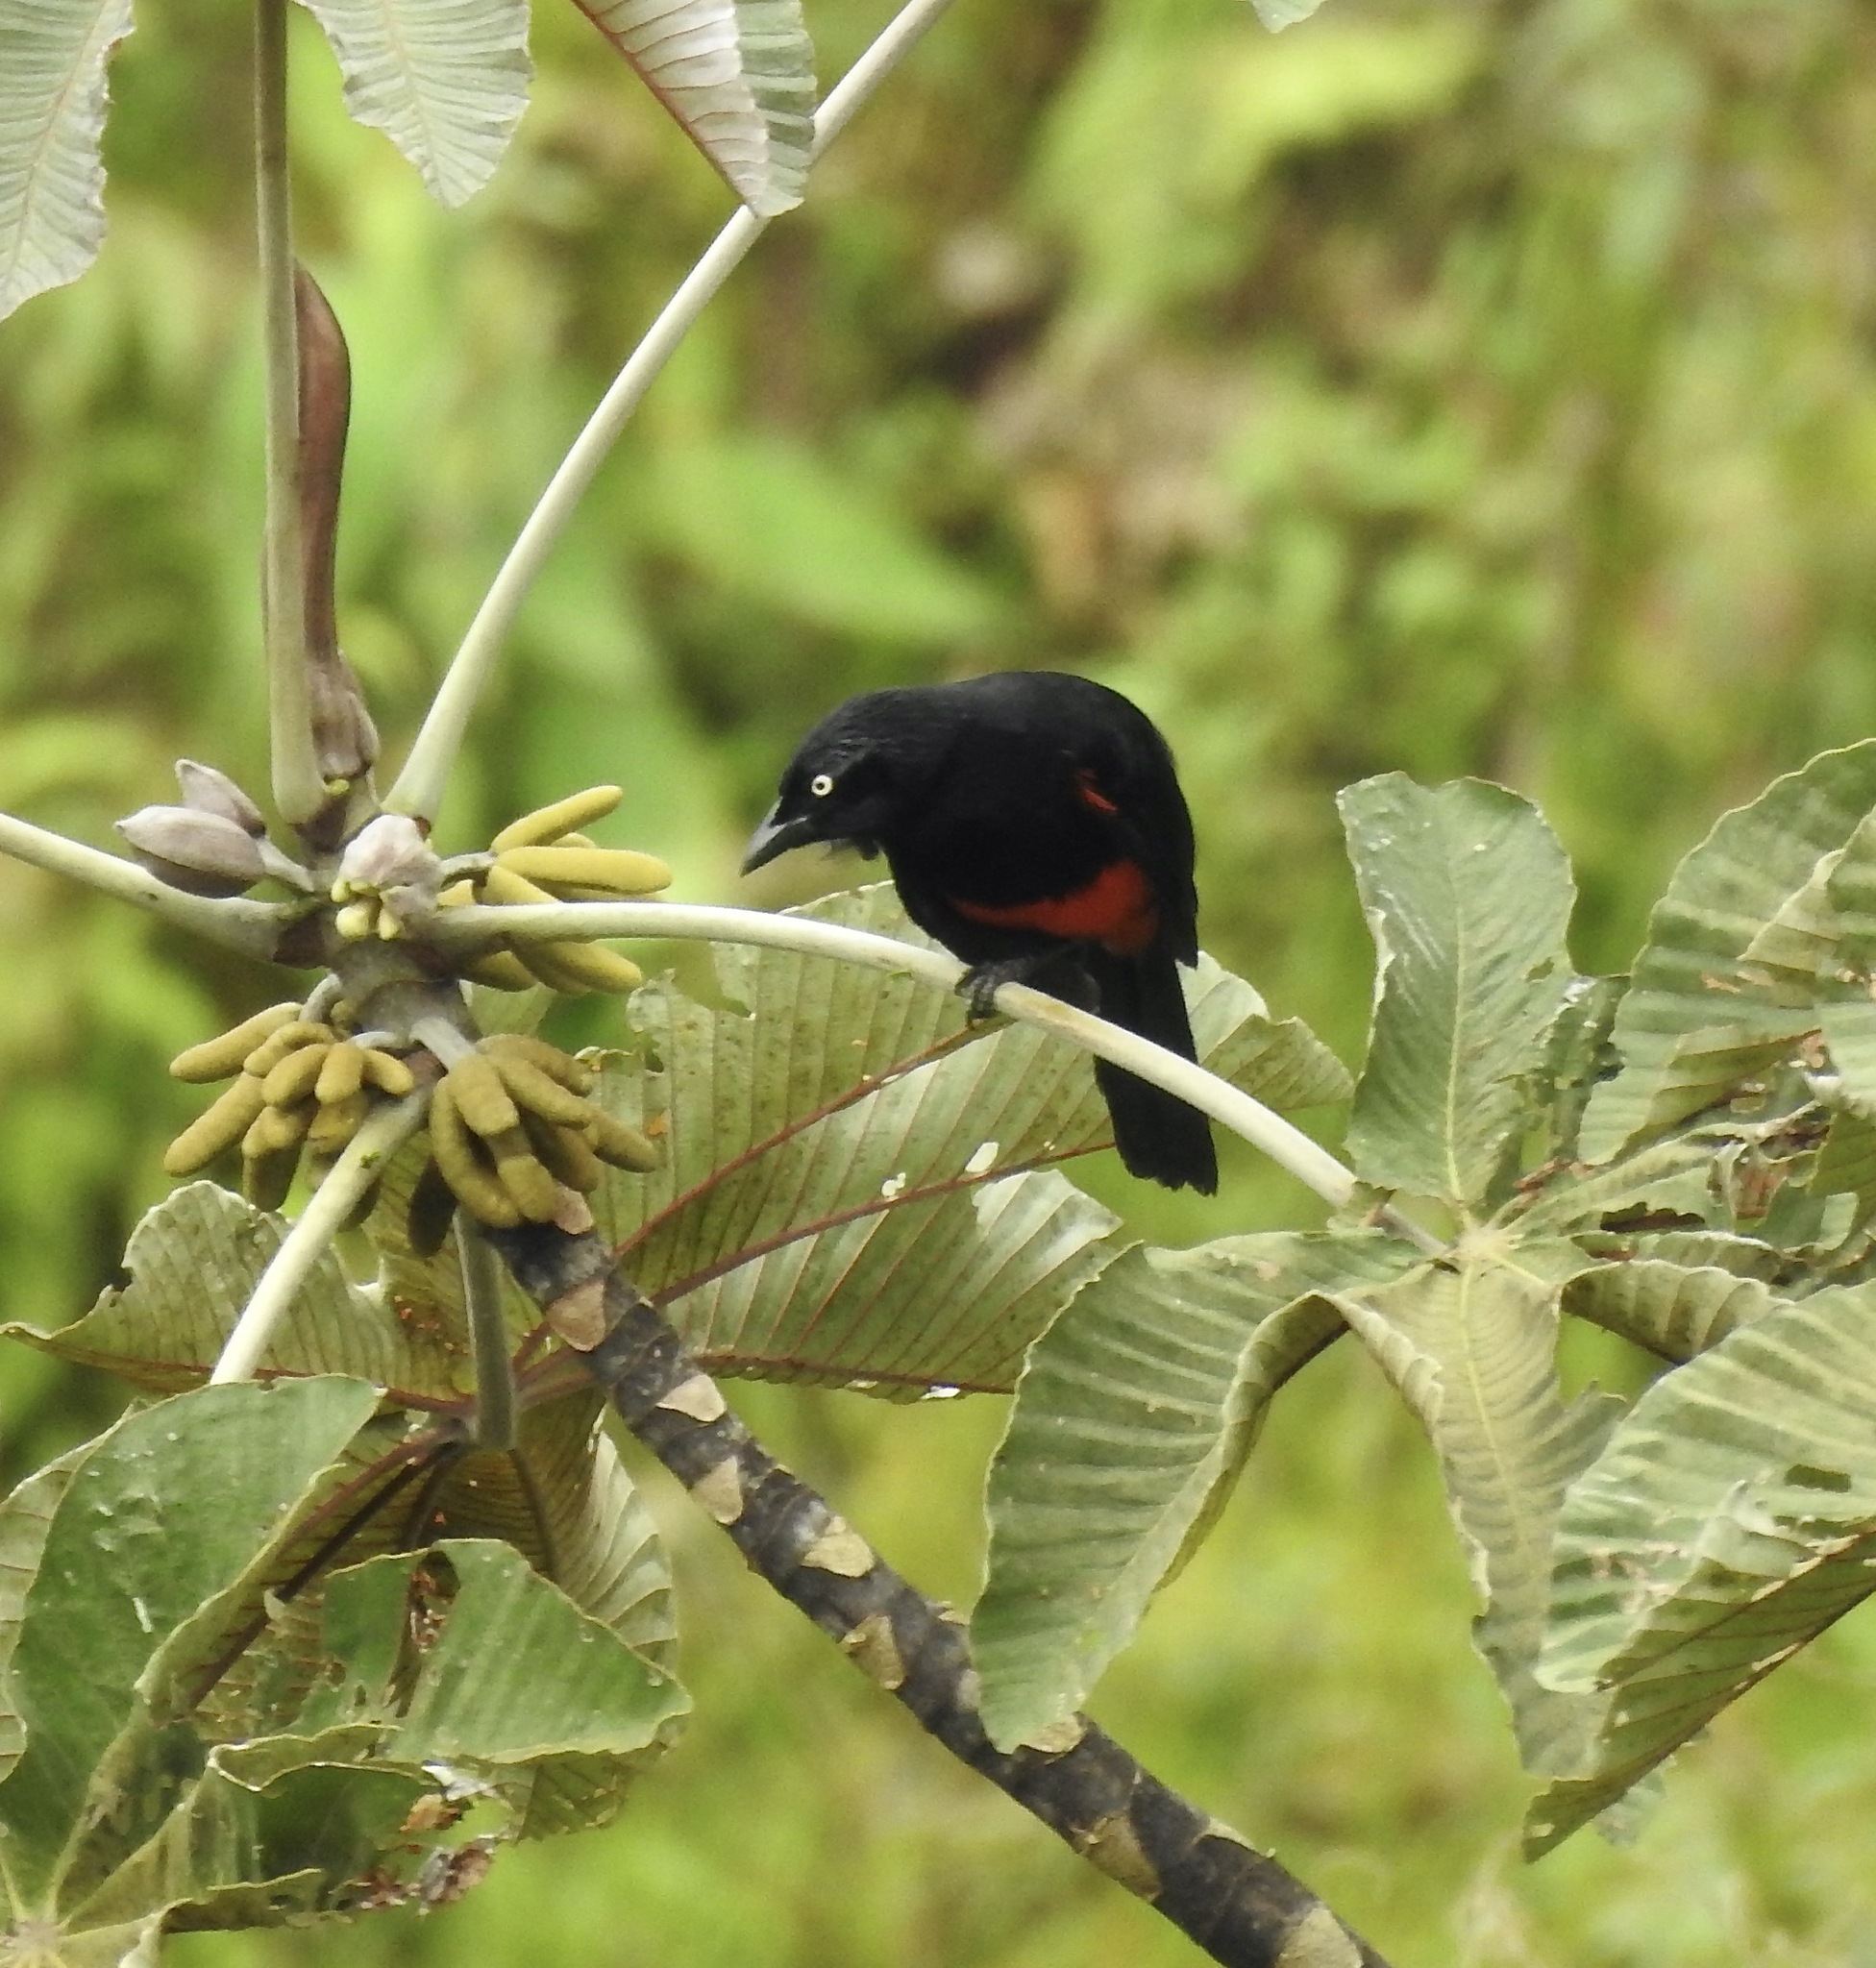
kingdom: Animalia
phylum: Chordata
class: Aves
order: Passeriformes
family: Icteridae
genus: Hypopyrrhus
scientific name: Hypopyrrhus pyrohypogaster
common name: Red-bellied grackle
